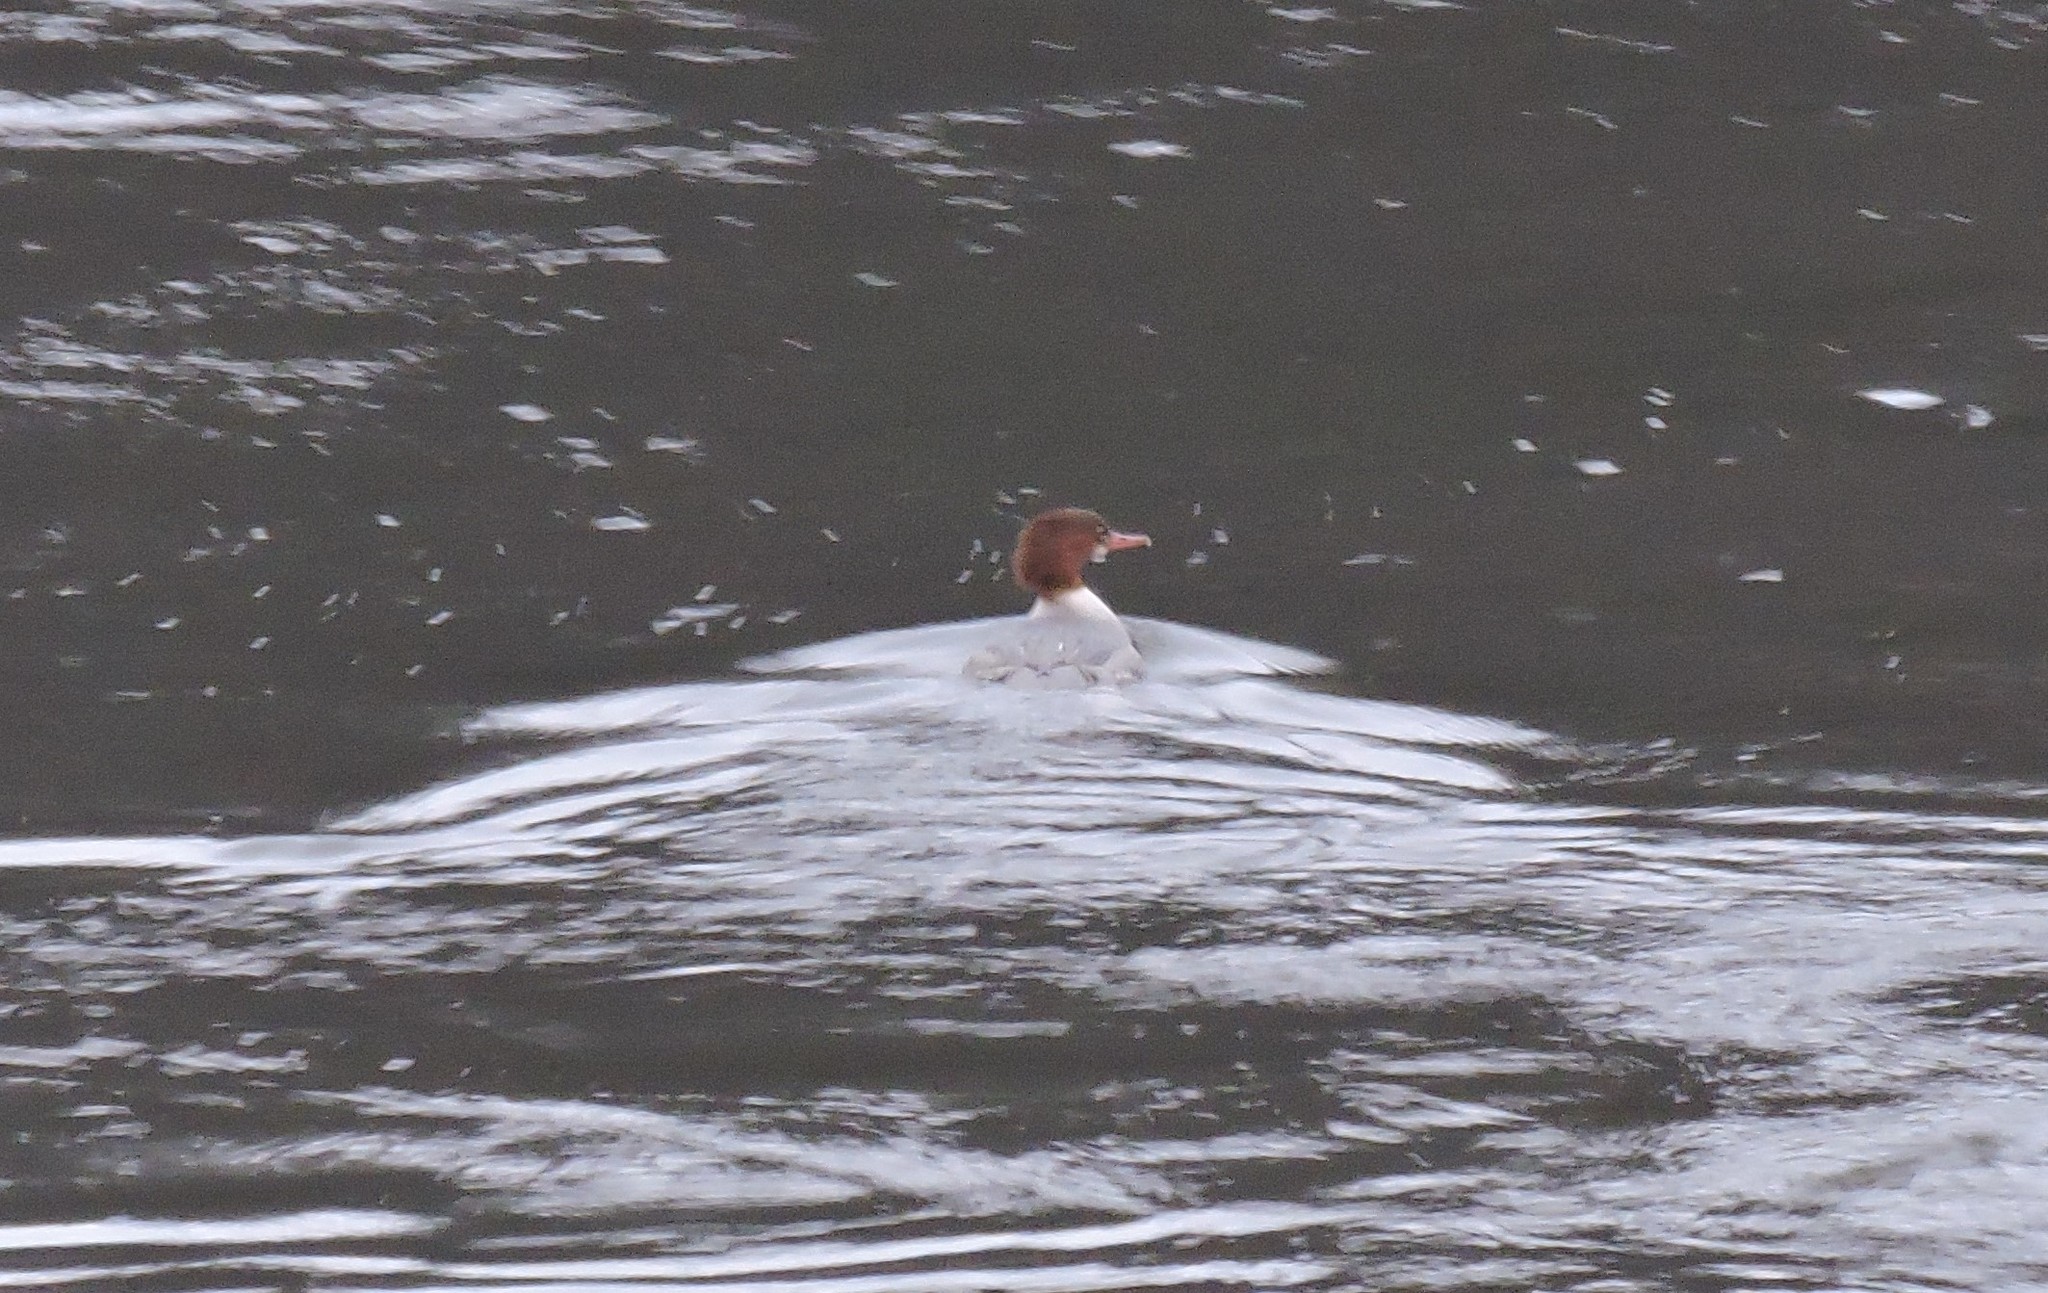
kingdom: Animalia
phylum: Chordata
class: Aves
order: Anseriformes
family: Anatidae
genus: Mergus
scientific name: Mergus merganser
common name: Common merganser
